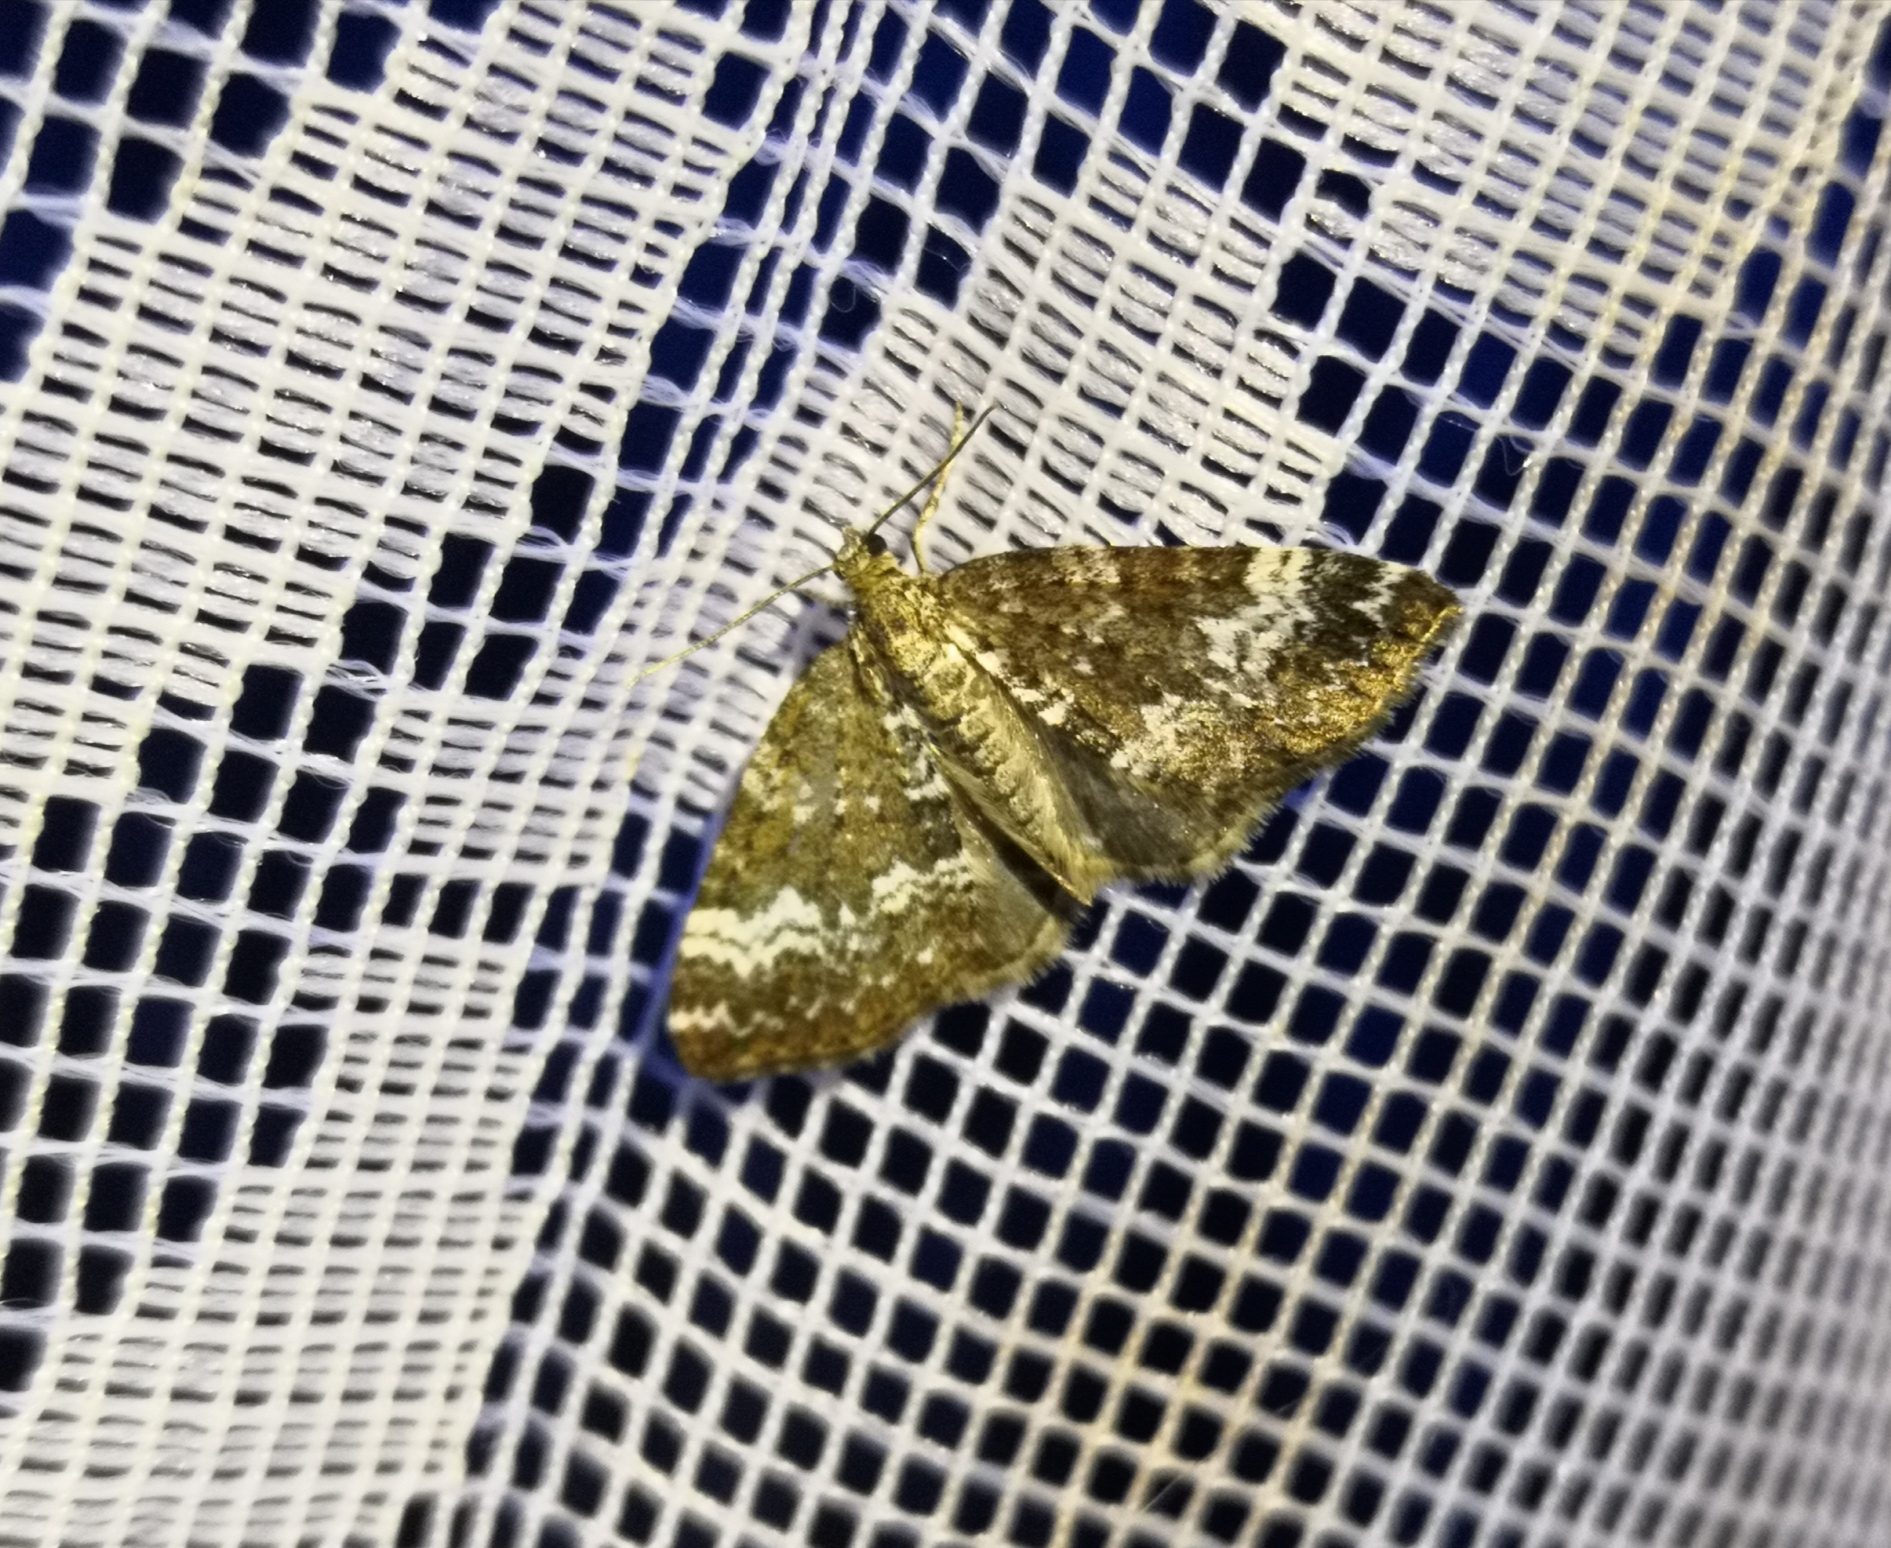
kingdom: Animalia
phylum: Arthropoda
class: Insecta
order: Lepidoptera
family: Geometridae
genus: Perizoma
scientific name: Perizoma alchemillata
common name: Small rivulet
